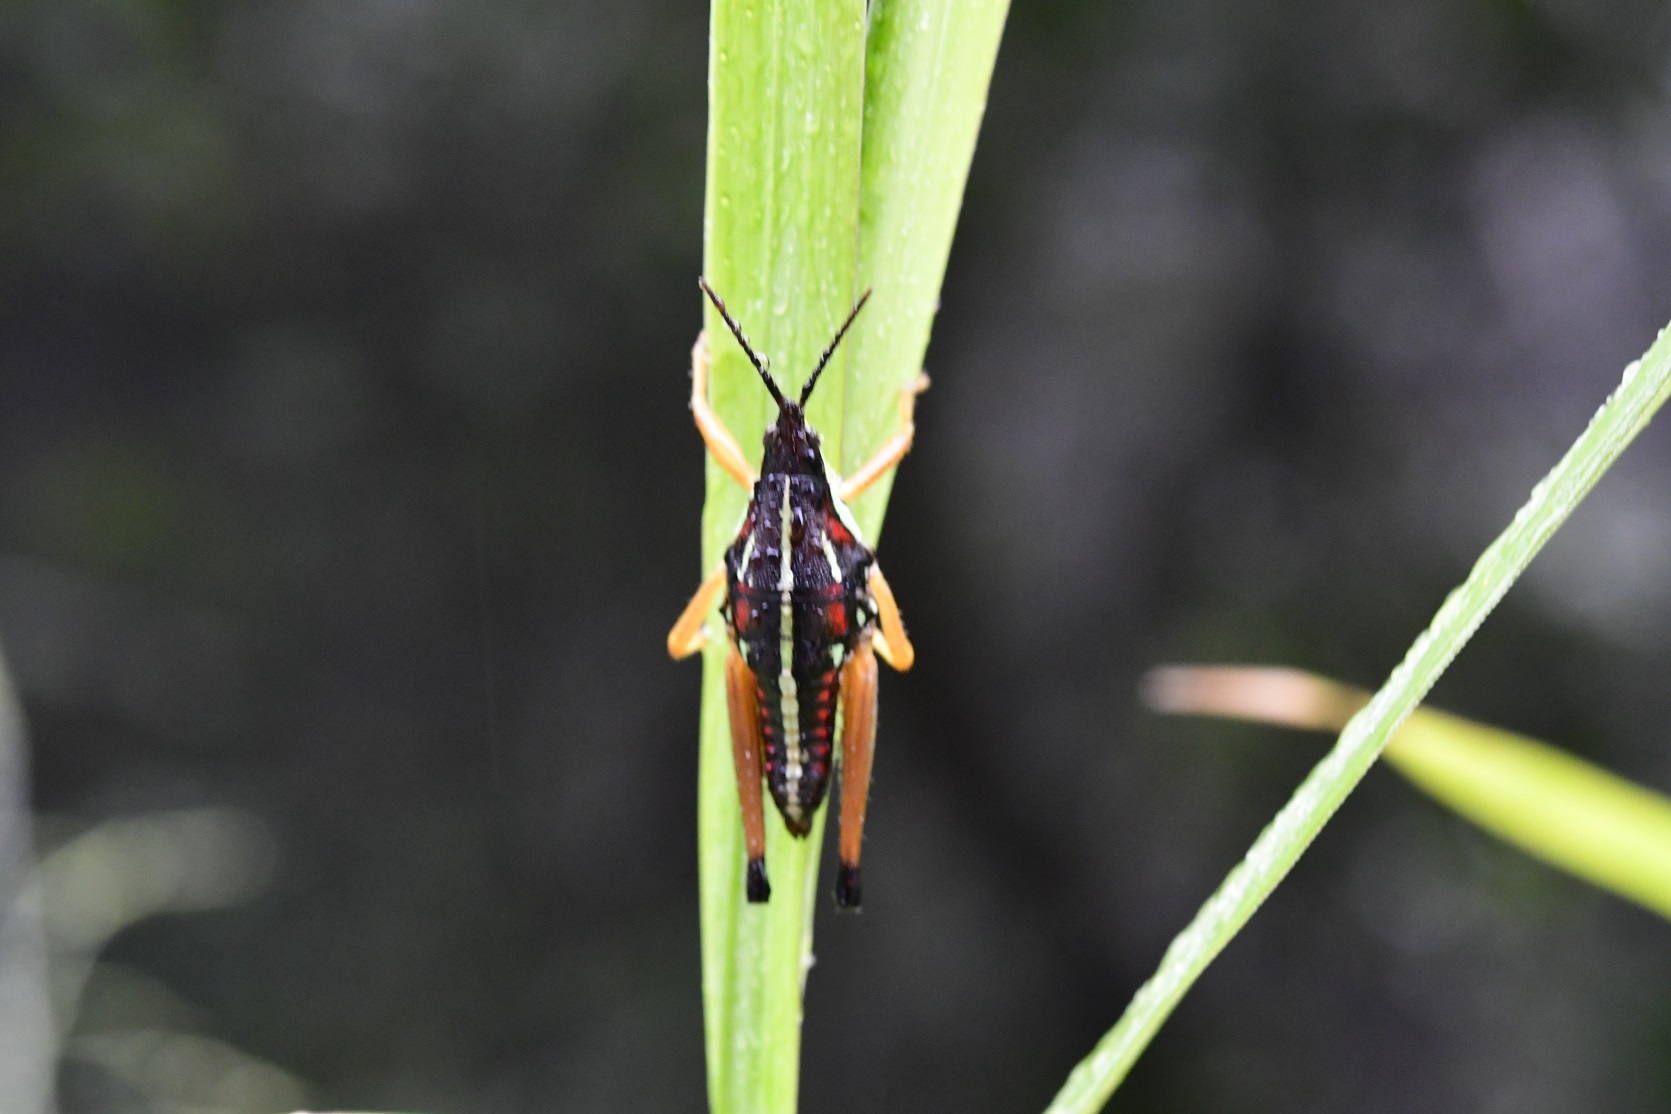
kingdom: Animalia
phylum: Arthropoda
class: Insecta
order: Orthoptera
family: Pyrgomorphidae
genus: Sphenarium
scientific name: Sphenarium histrio
